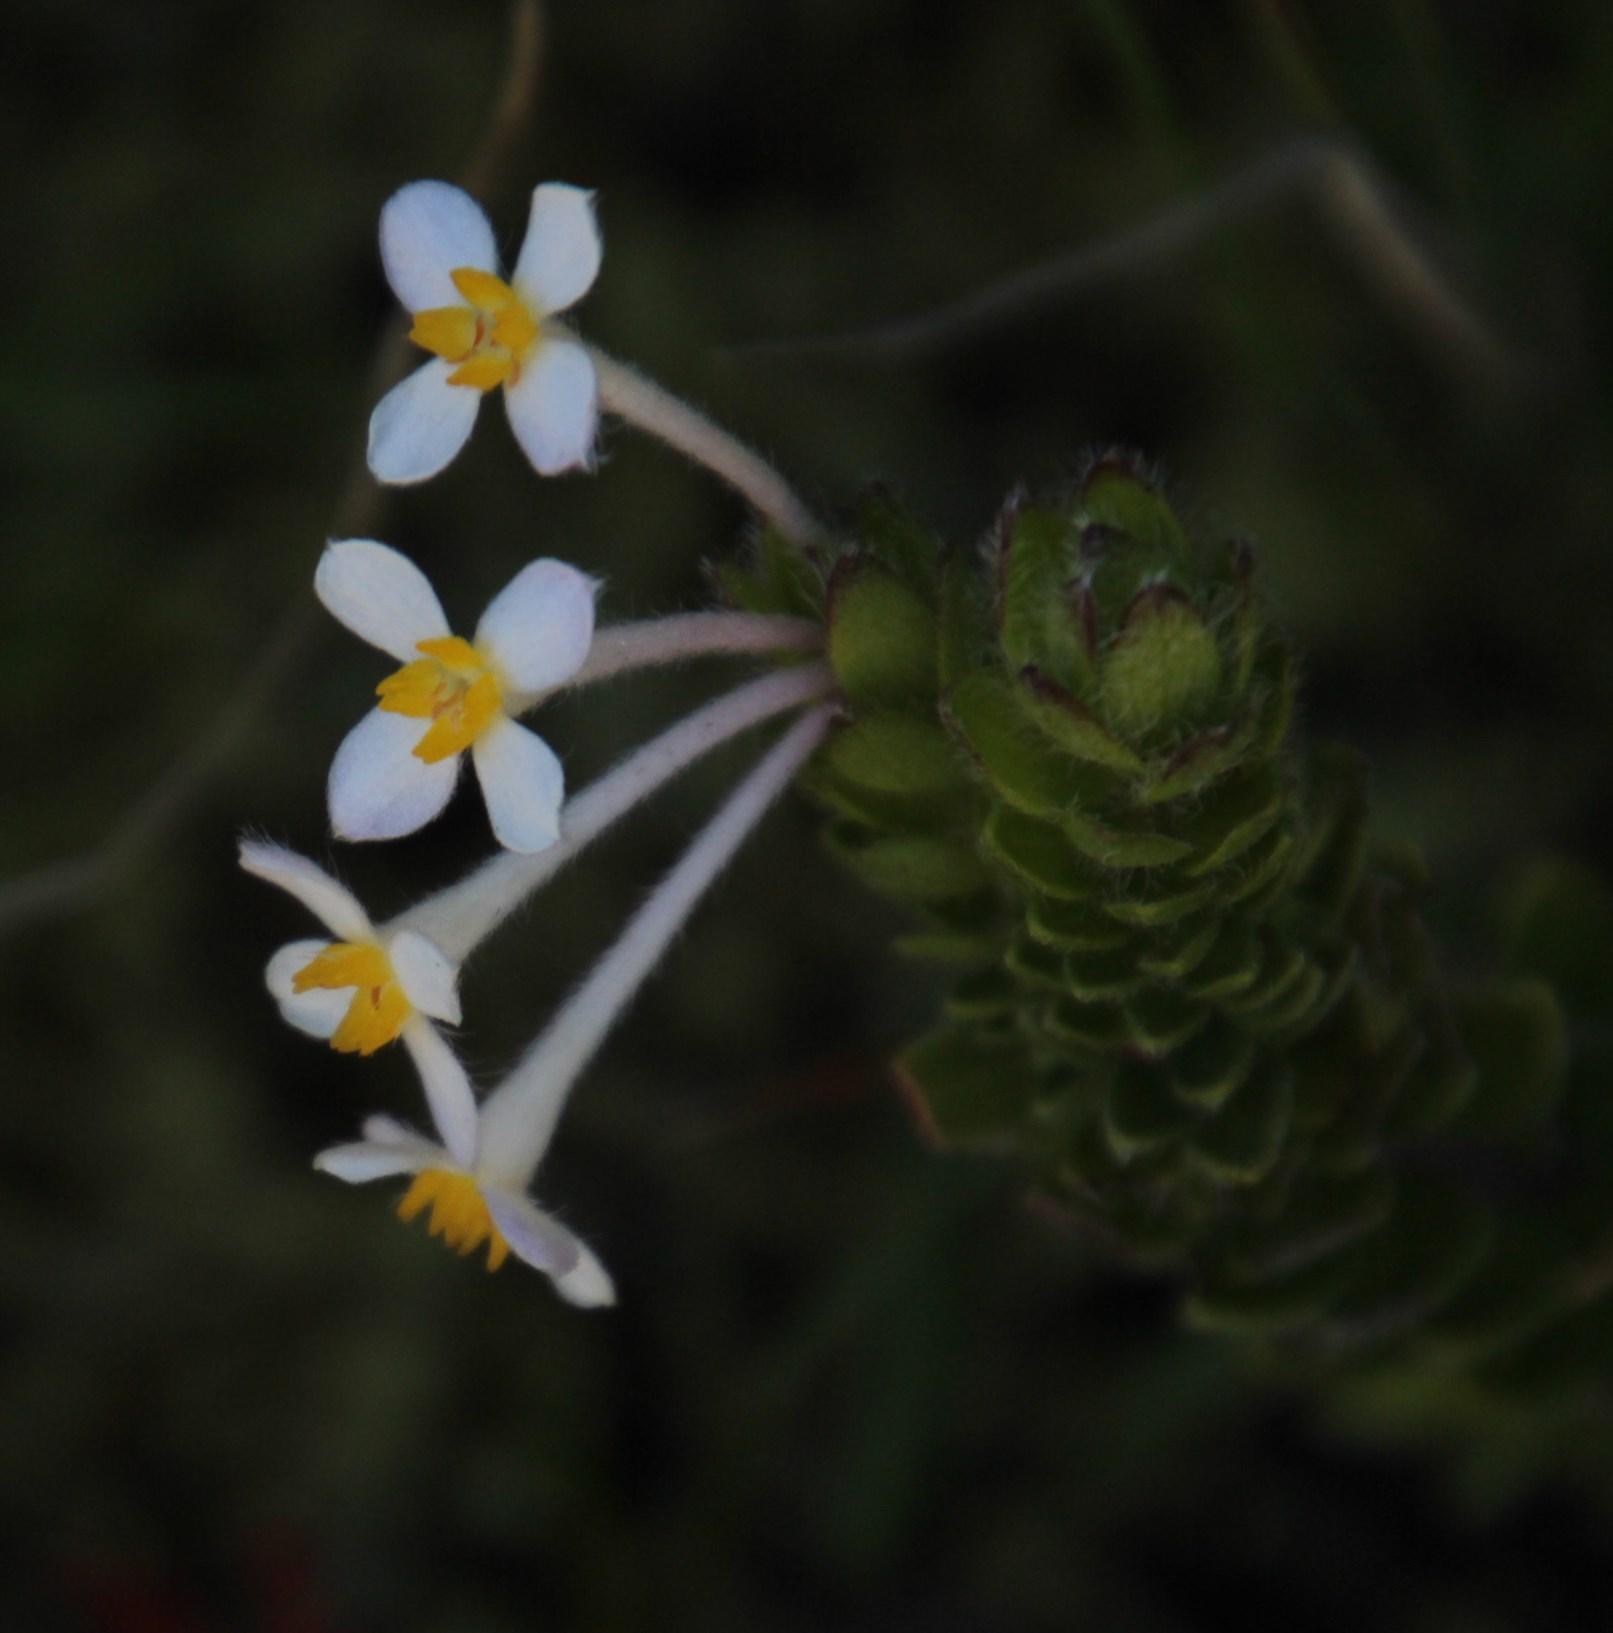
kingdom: Plantae
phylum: Tracheophyta
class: Magnoliopsida
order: Malvales
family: Thymelaeaceae
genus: Gnidia
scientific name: Gnidia tomentosa
